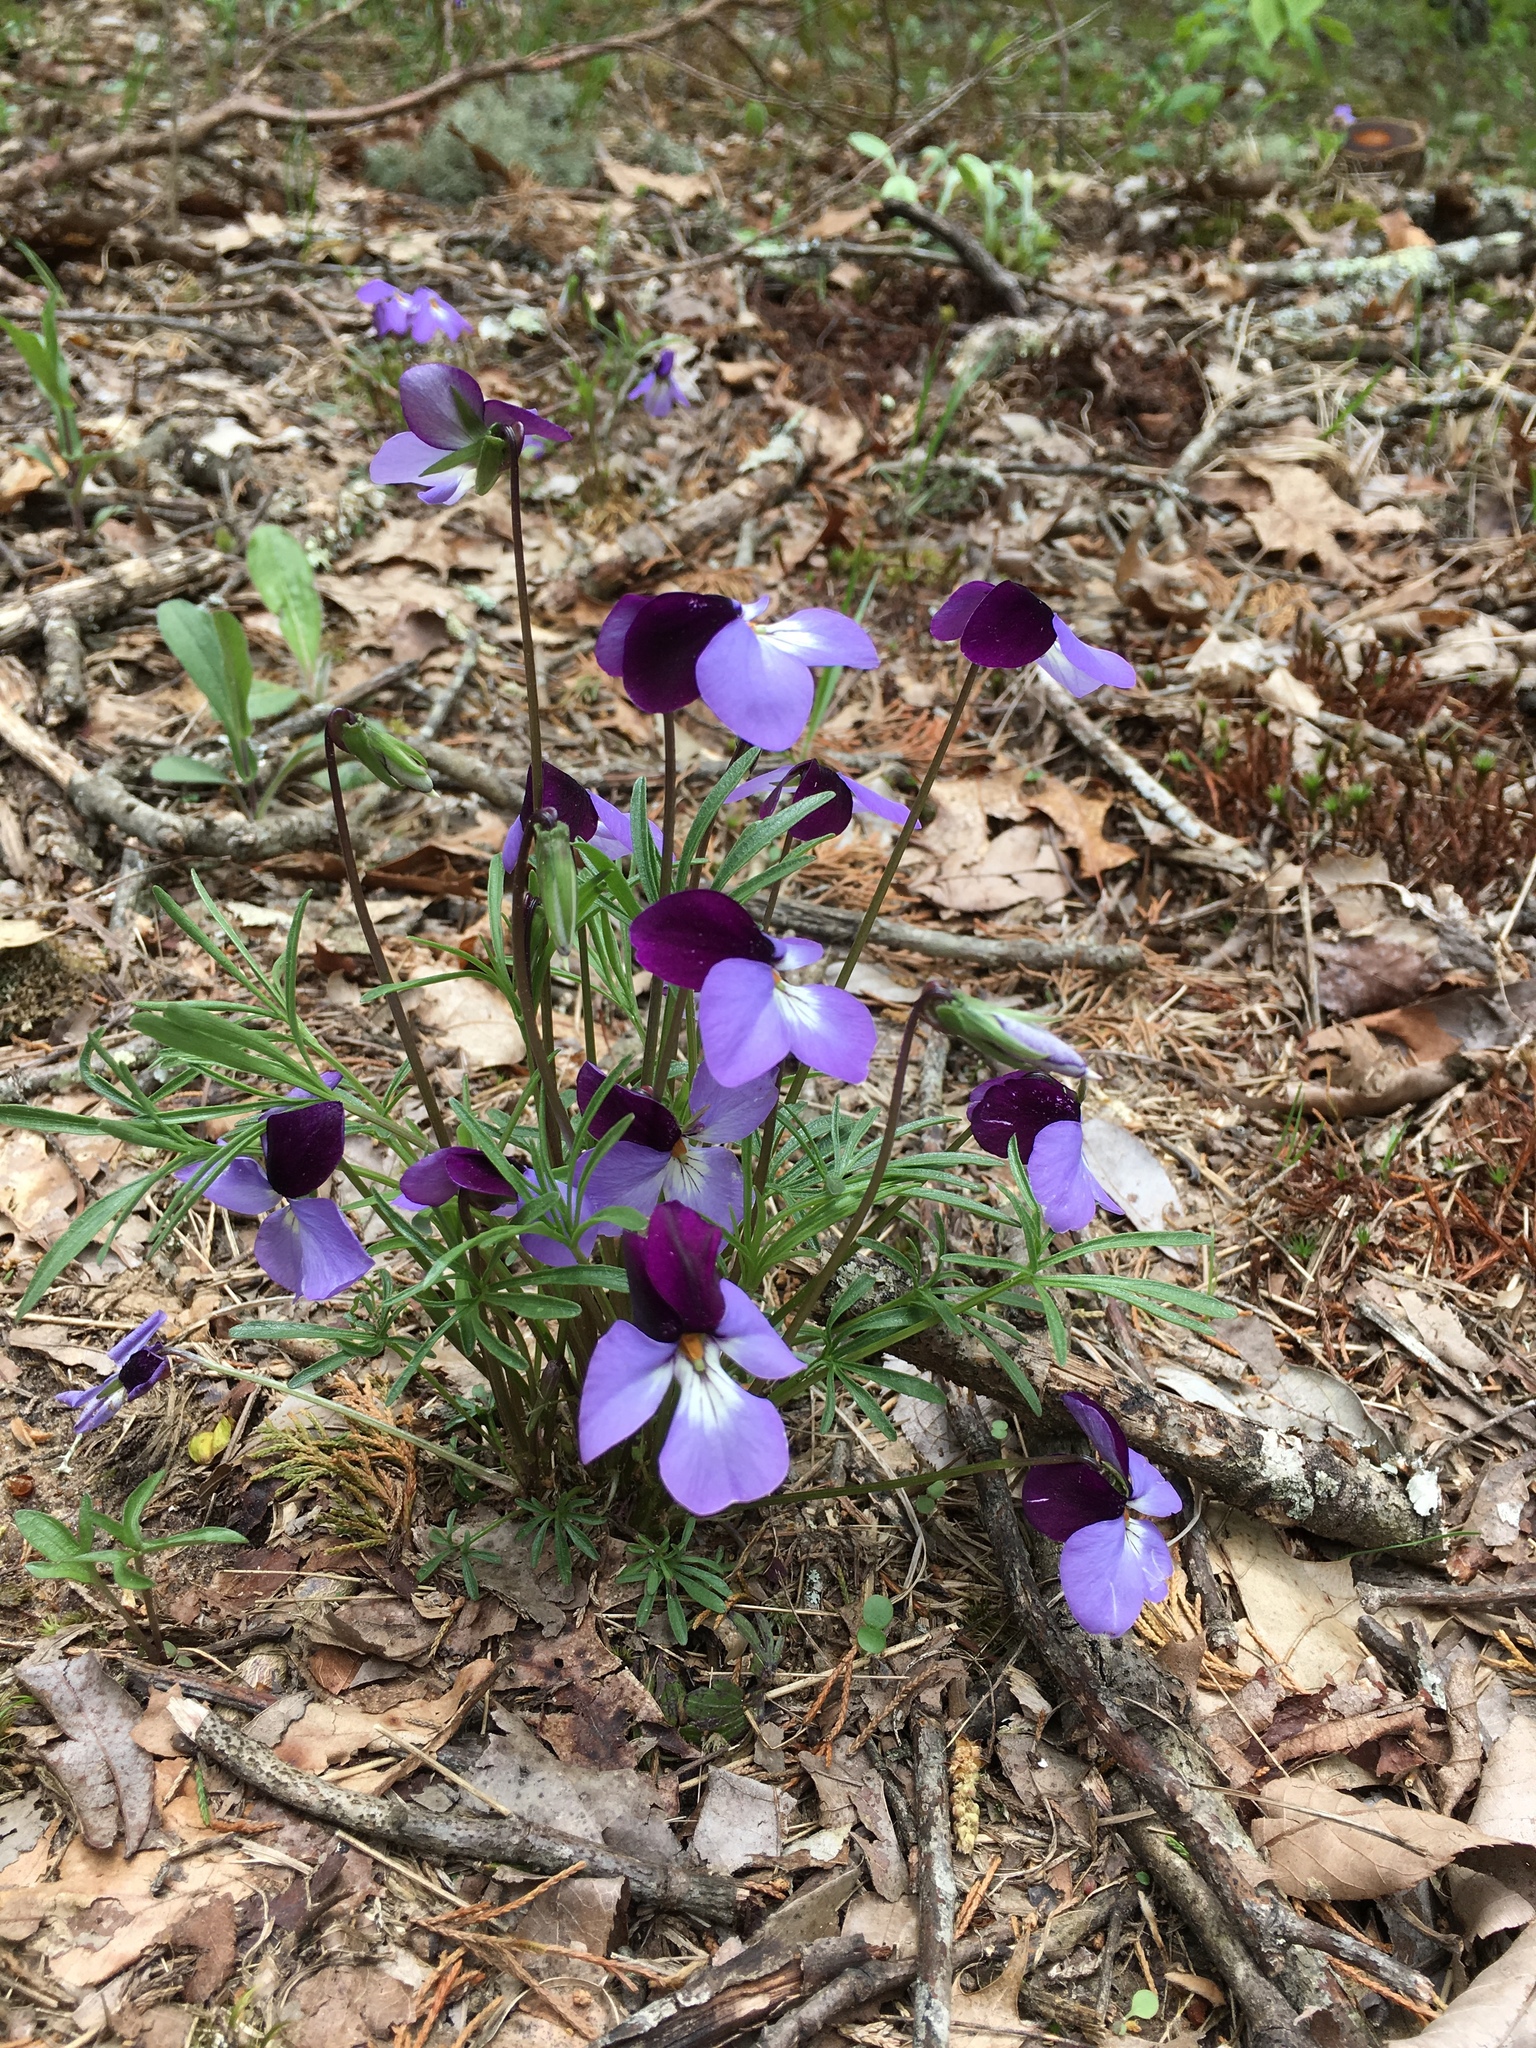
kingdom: Plantae
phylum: Tracheophyta
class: Magnoliopsida
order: Malpighiales
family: Violaceae
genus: Viola
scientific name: Viola pedata
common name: Pansy violet
